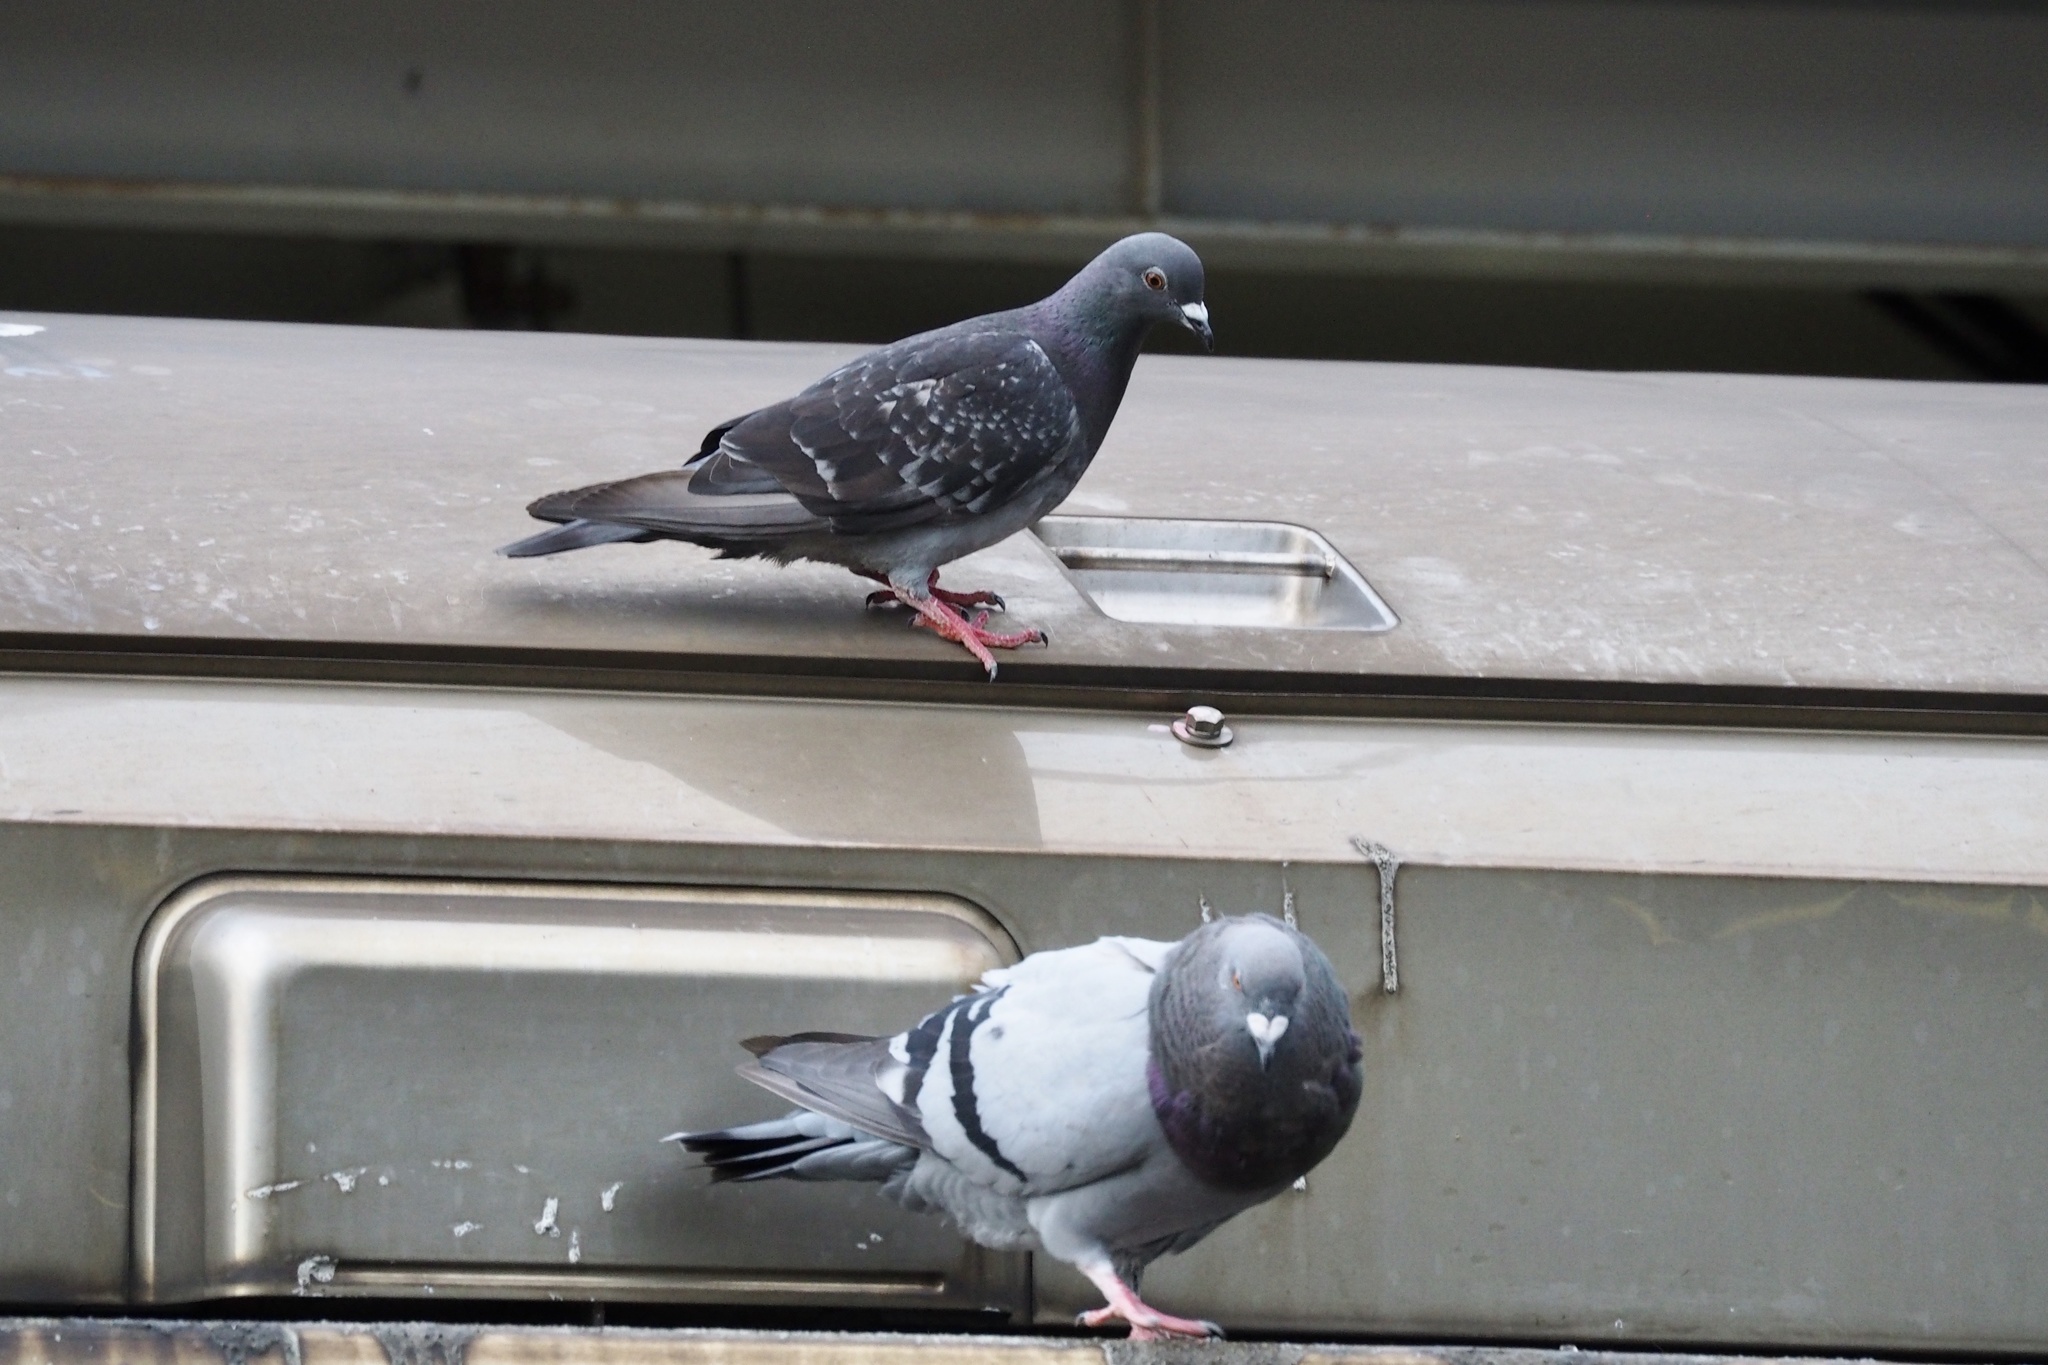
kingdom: Animalia
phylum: Chordata
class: Aves
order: Columbiformes
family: Columbidae
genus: Columba
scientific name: Columba livia
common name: Rock pigeon
